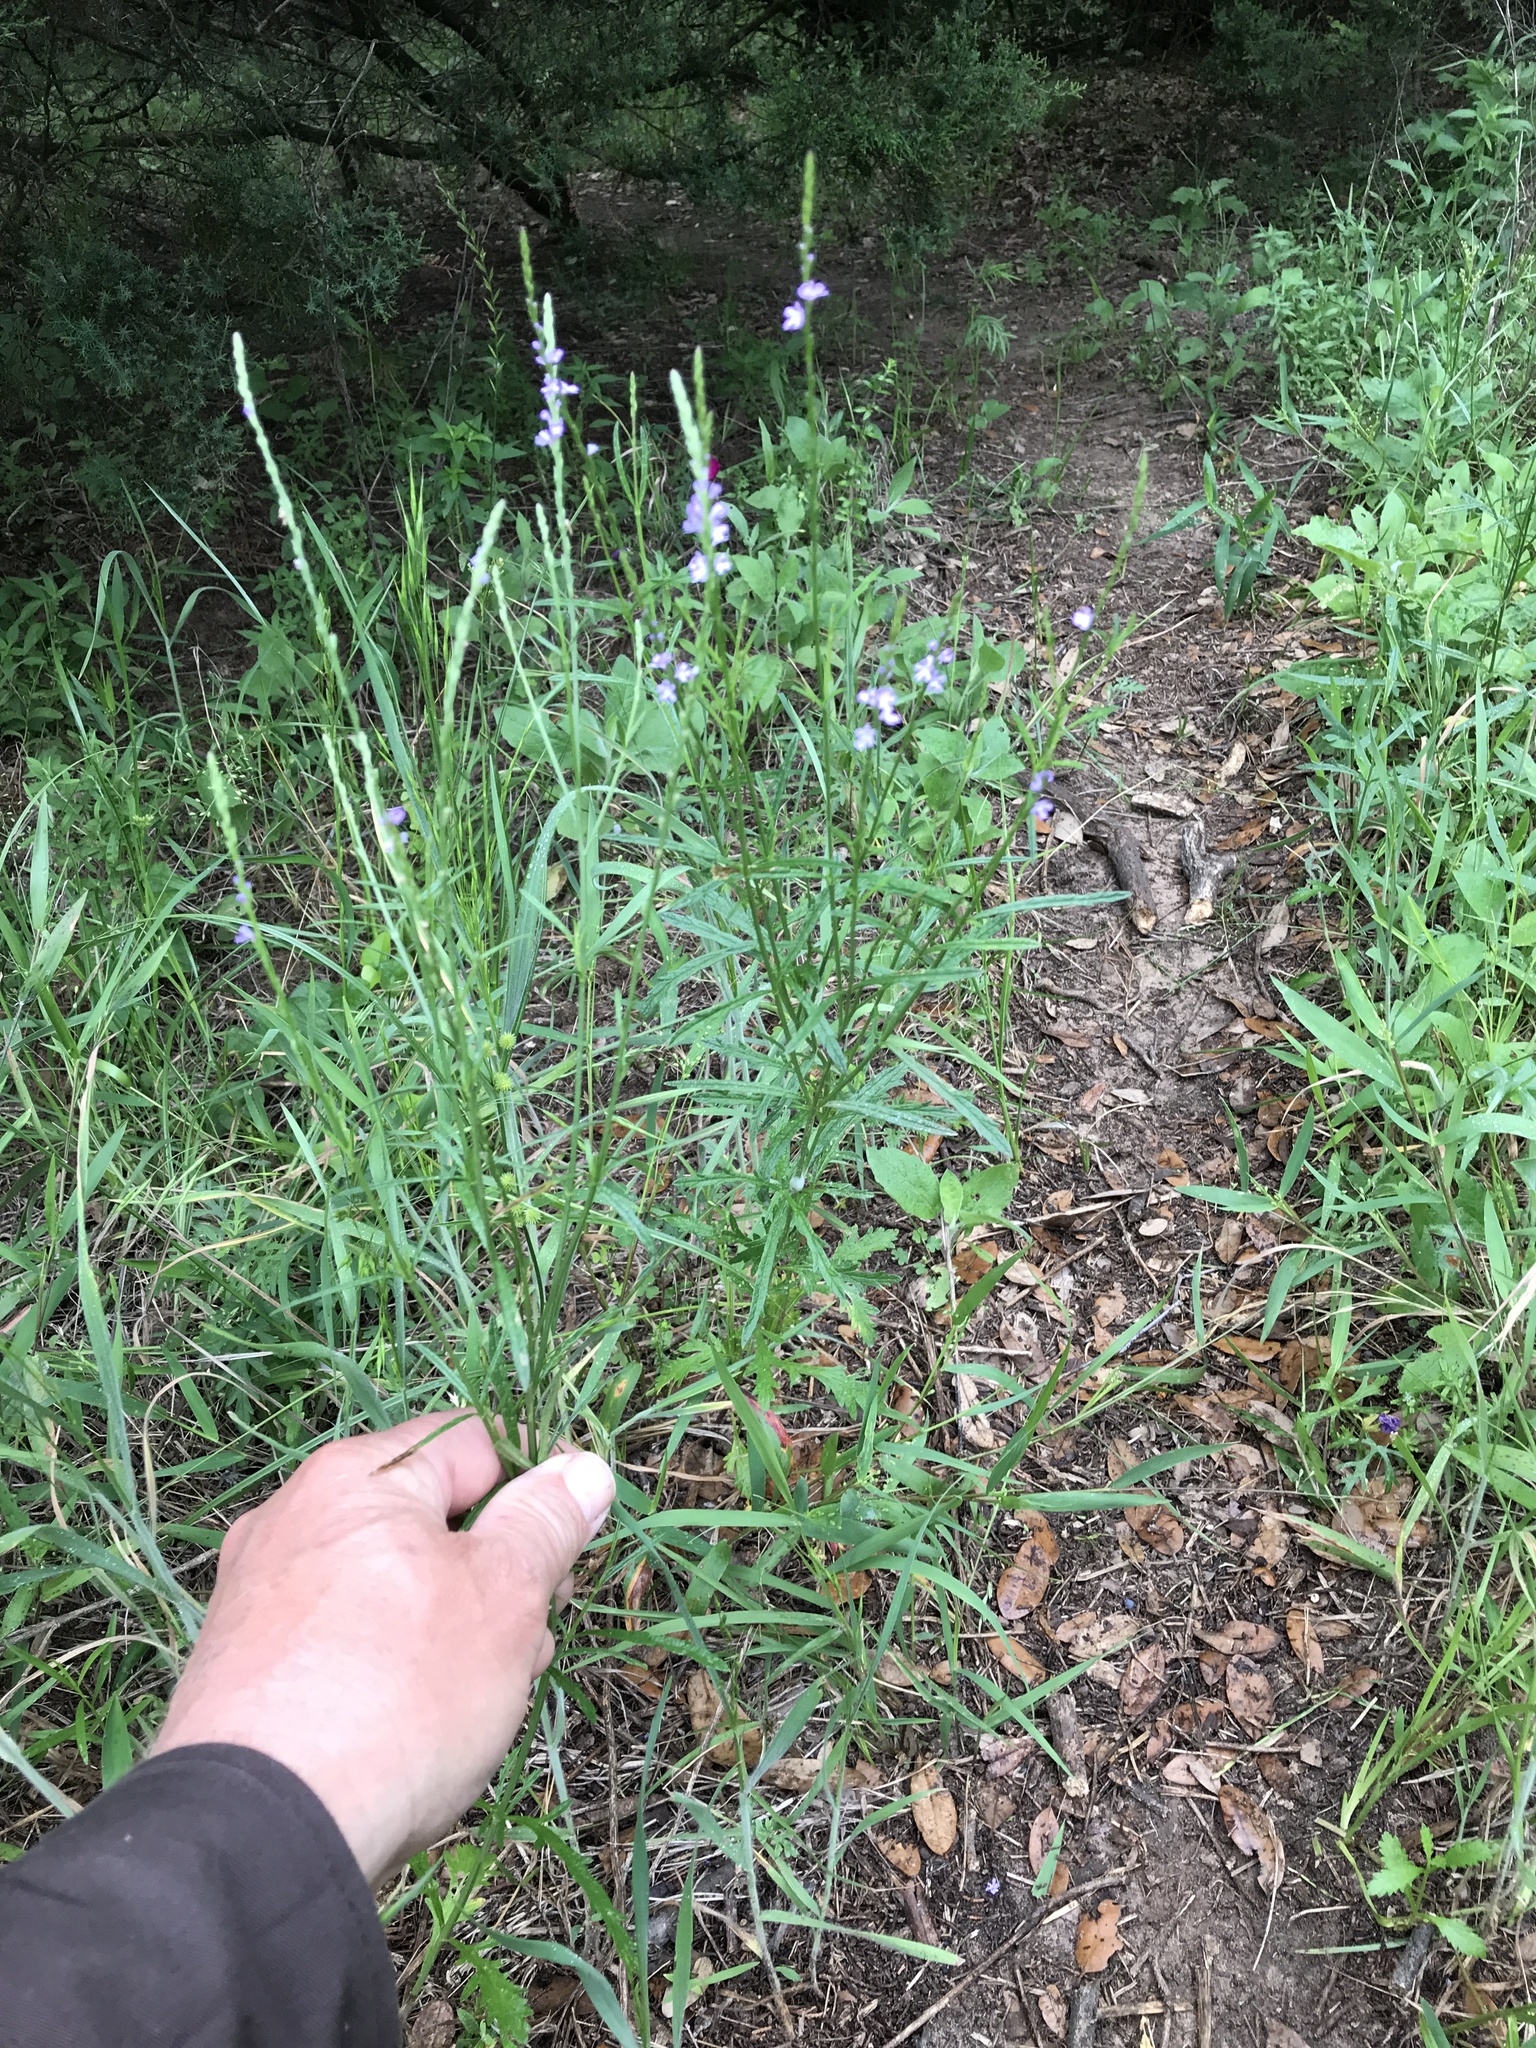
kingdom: Plantae
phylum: Tracheophyta
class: Magnoliopsida
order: Lamiales
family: Verbenaceae
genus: Verbena
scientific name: Verbena halei
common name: Texas vervain
